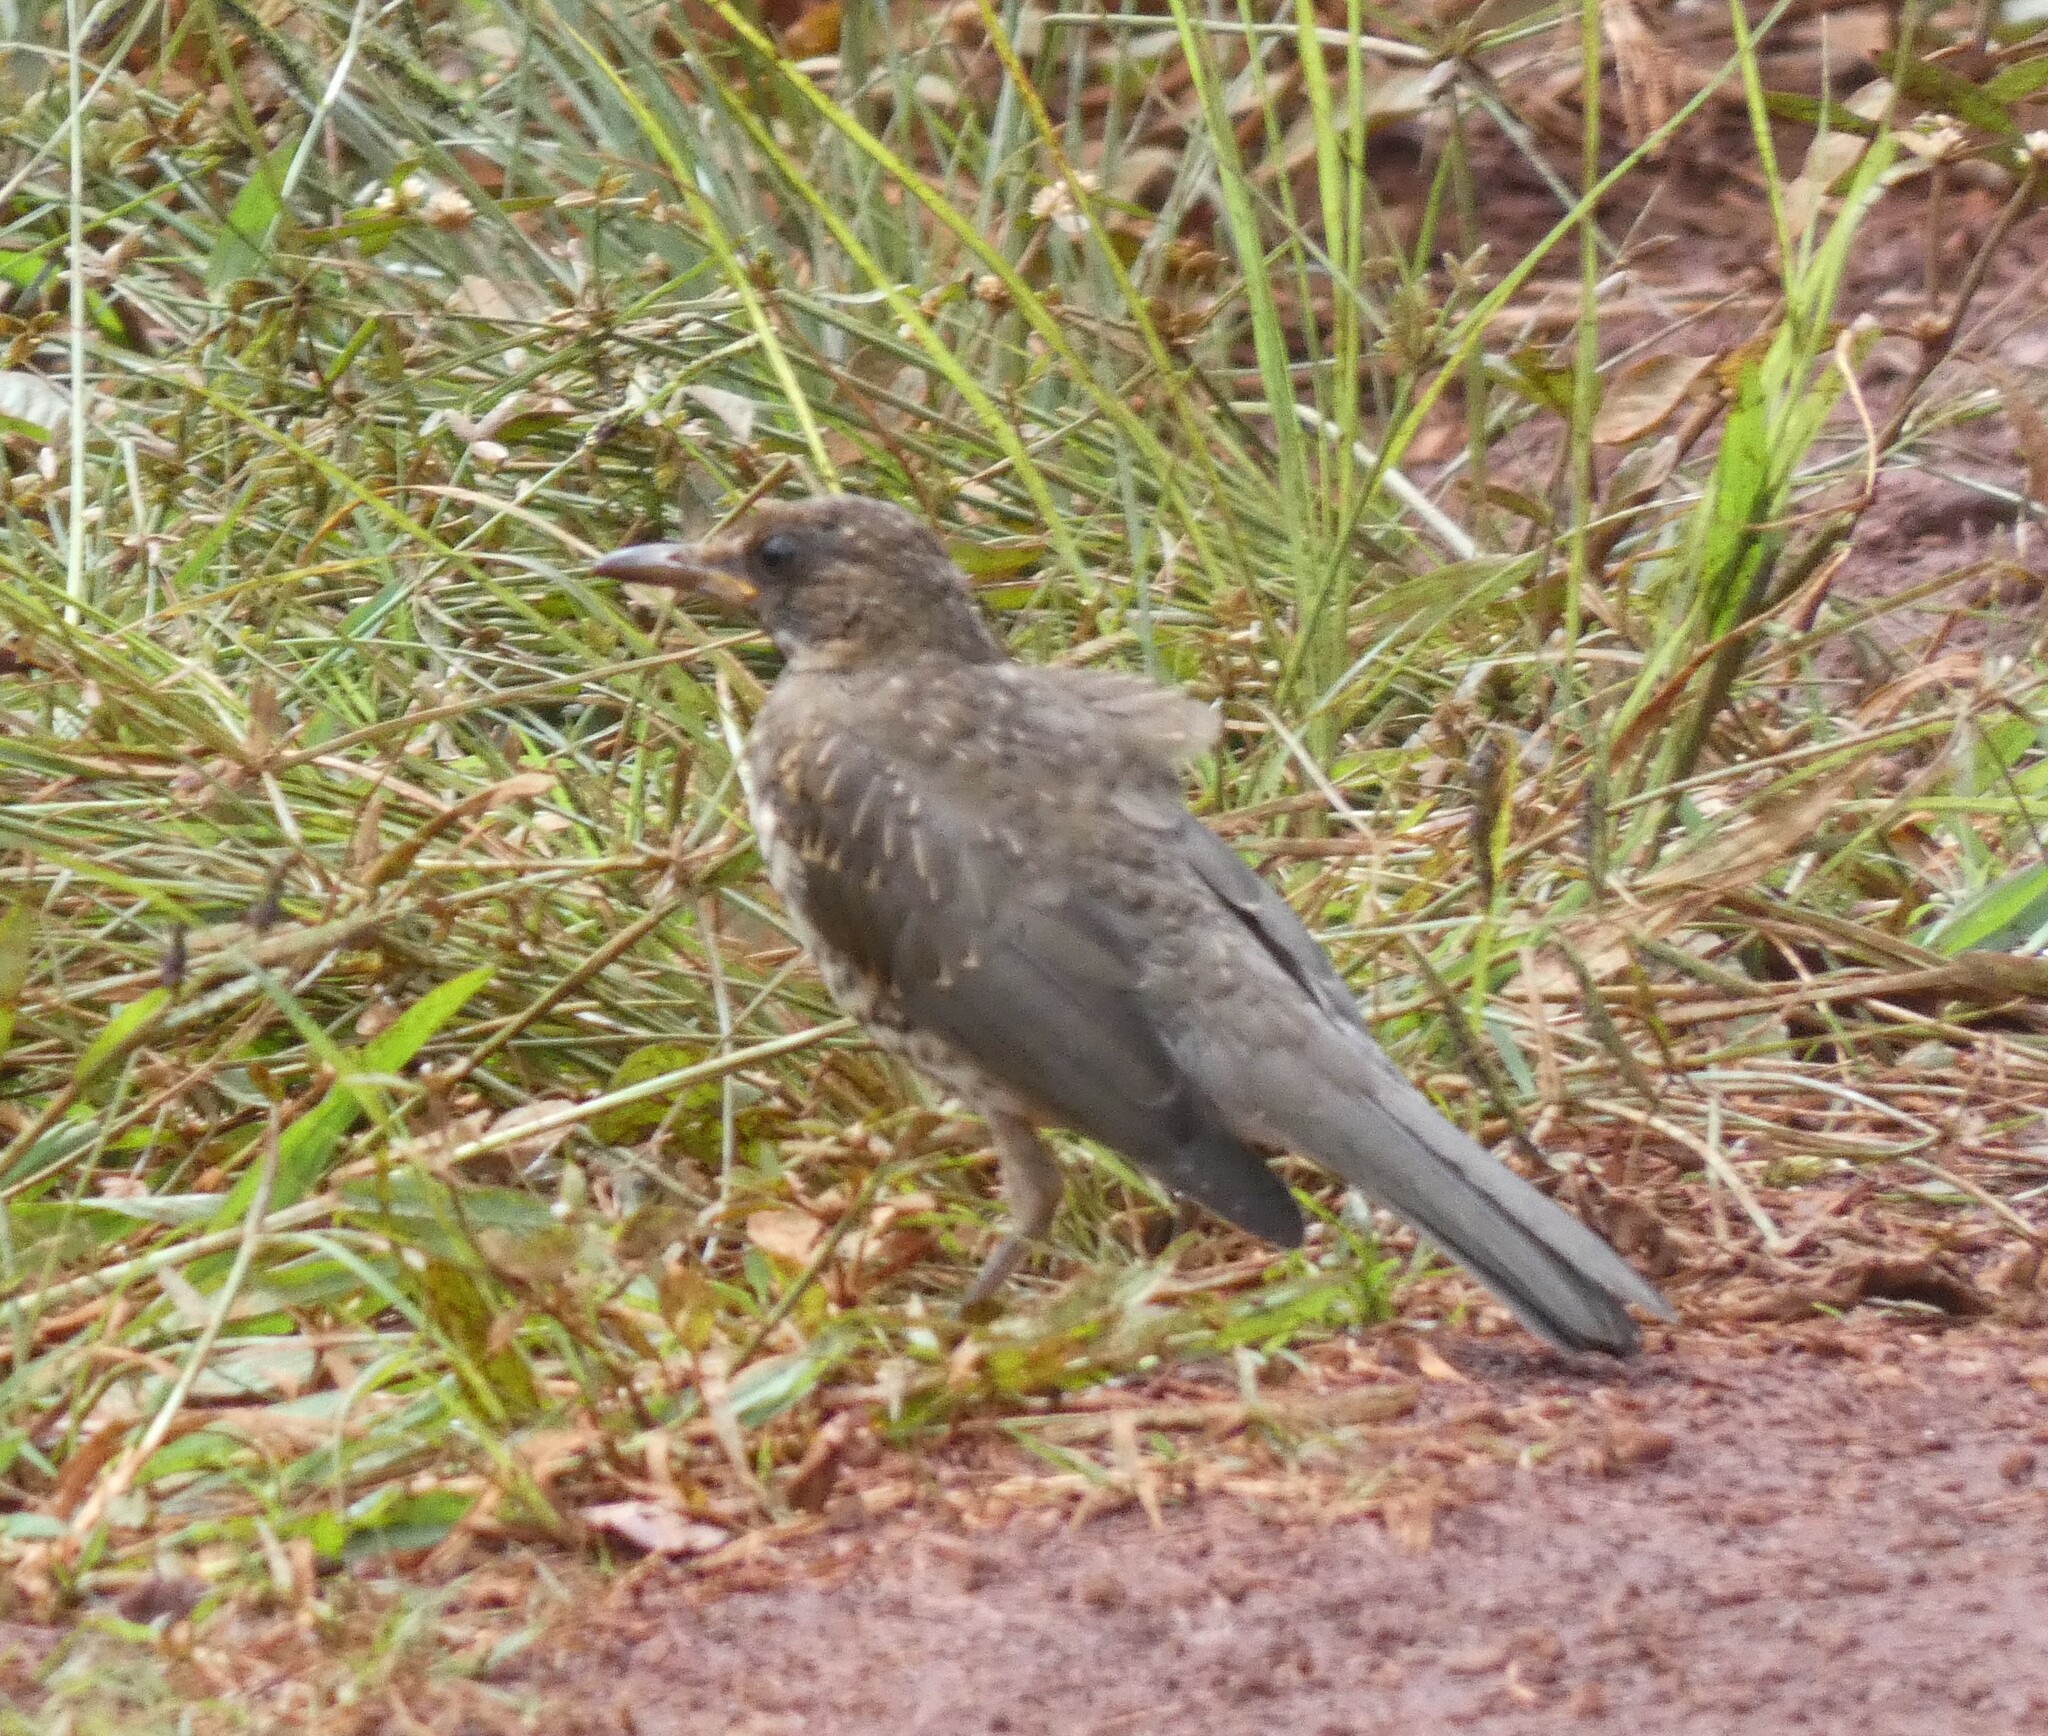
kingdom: Animalia
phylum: Chordata
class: Aves
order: Passeriformes
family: Turdidae
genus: Turdus
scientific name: Turdus amaurochalinus
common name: Creamy-bellied thrush
